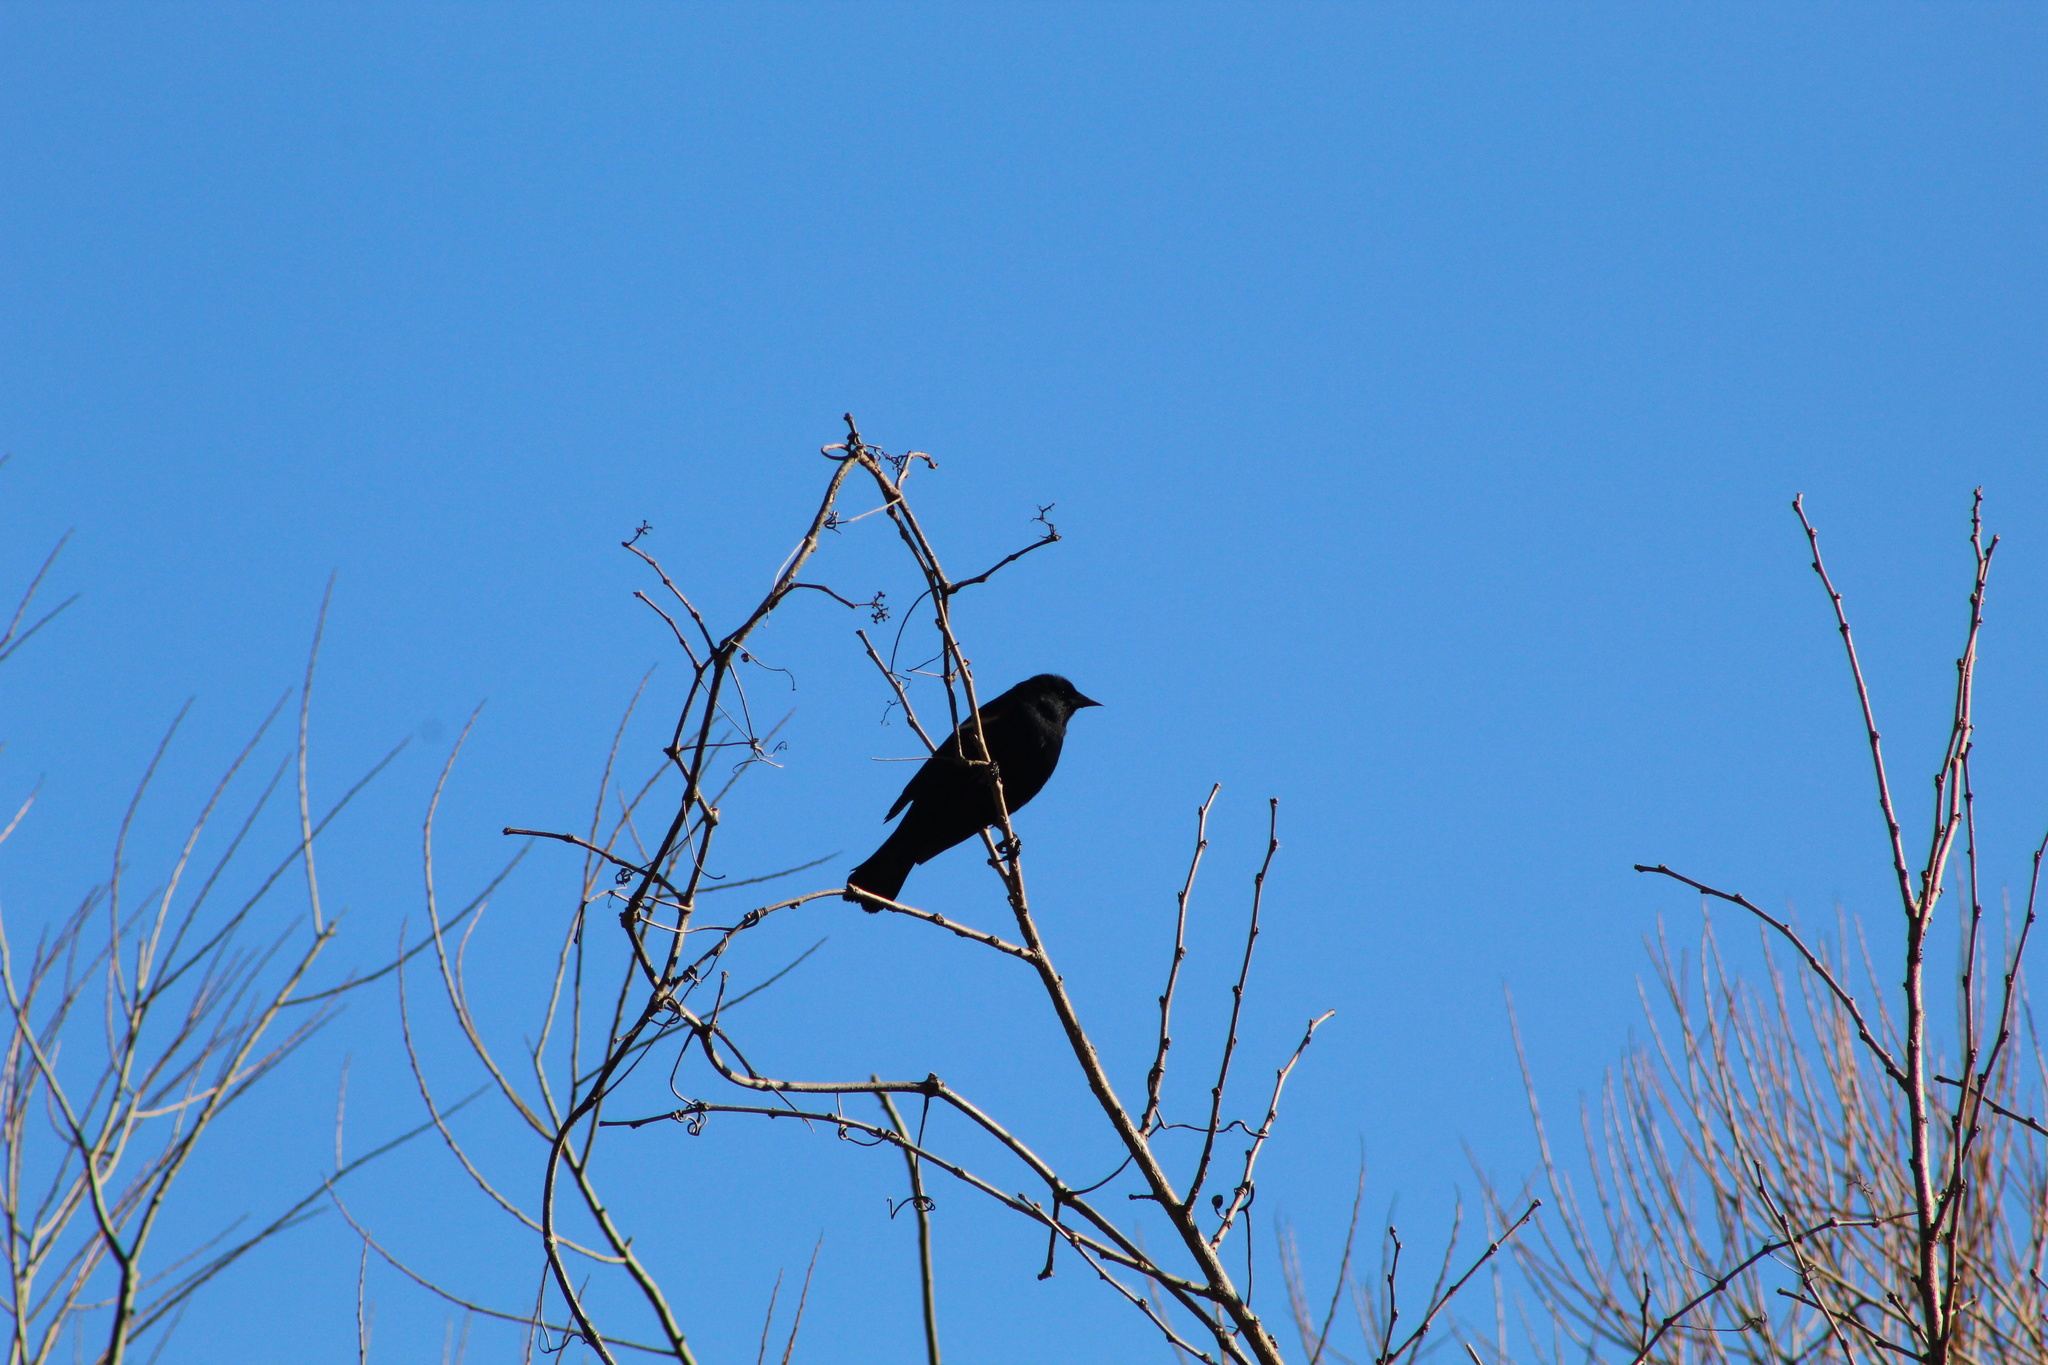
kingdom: Animalia
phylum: Chordata
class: Aves
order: Passeriformes
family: Icteridae
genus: Agelaius
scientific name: Agelaius phoeniceus
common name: Red-winged blackbird
